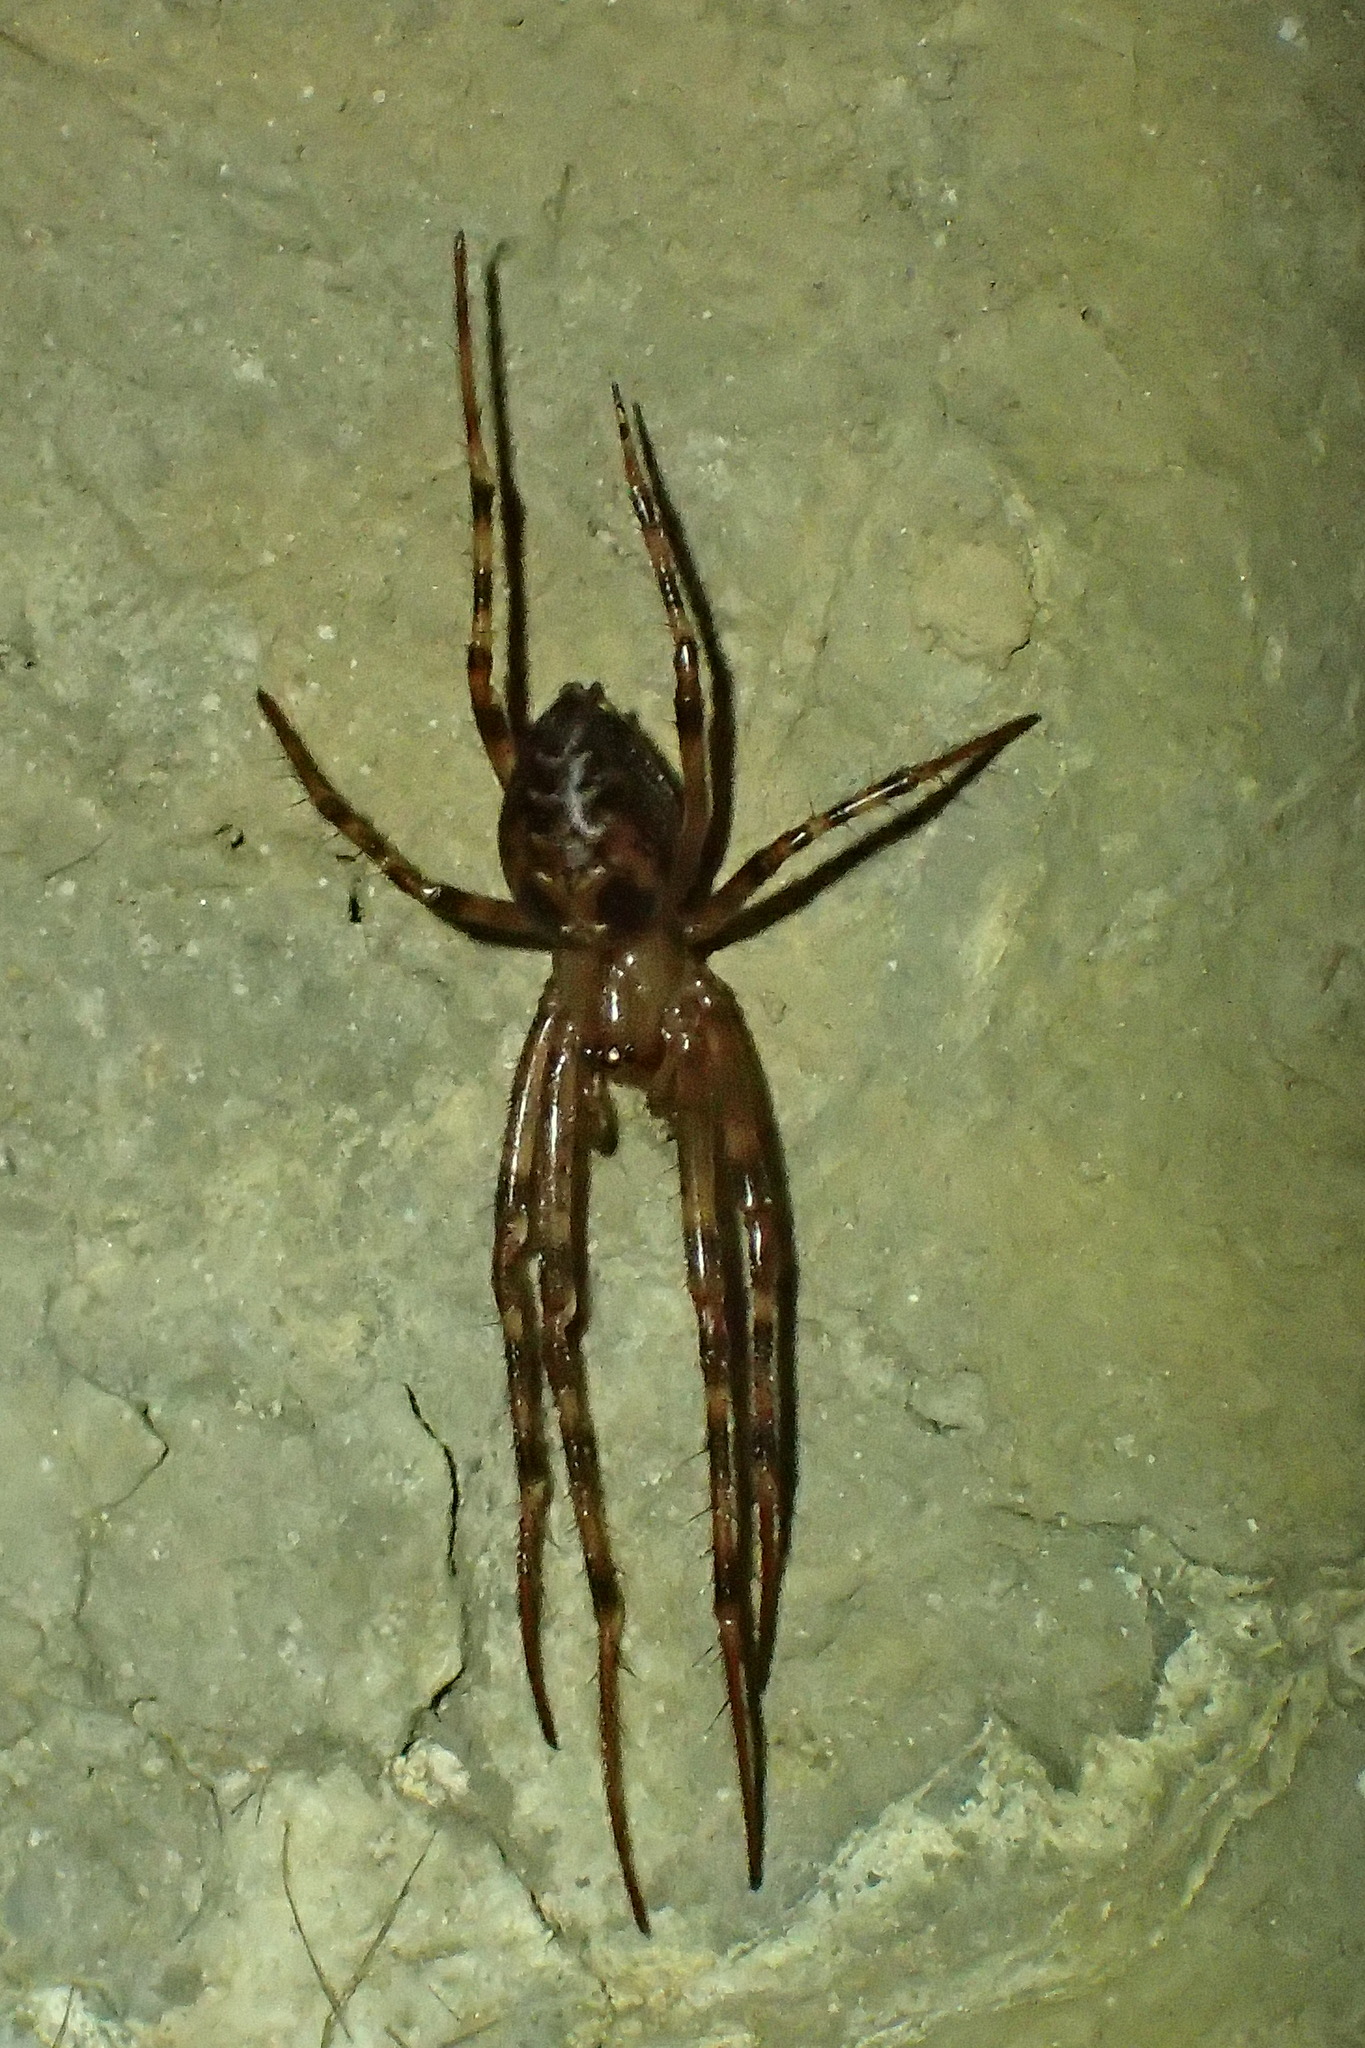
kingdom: Animalia
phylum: Arthropoda
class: Arachnida
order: Araneae
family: Tetragnathidae
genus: Meta
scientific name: Meta menardi
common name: Cave spider
